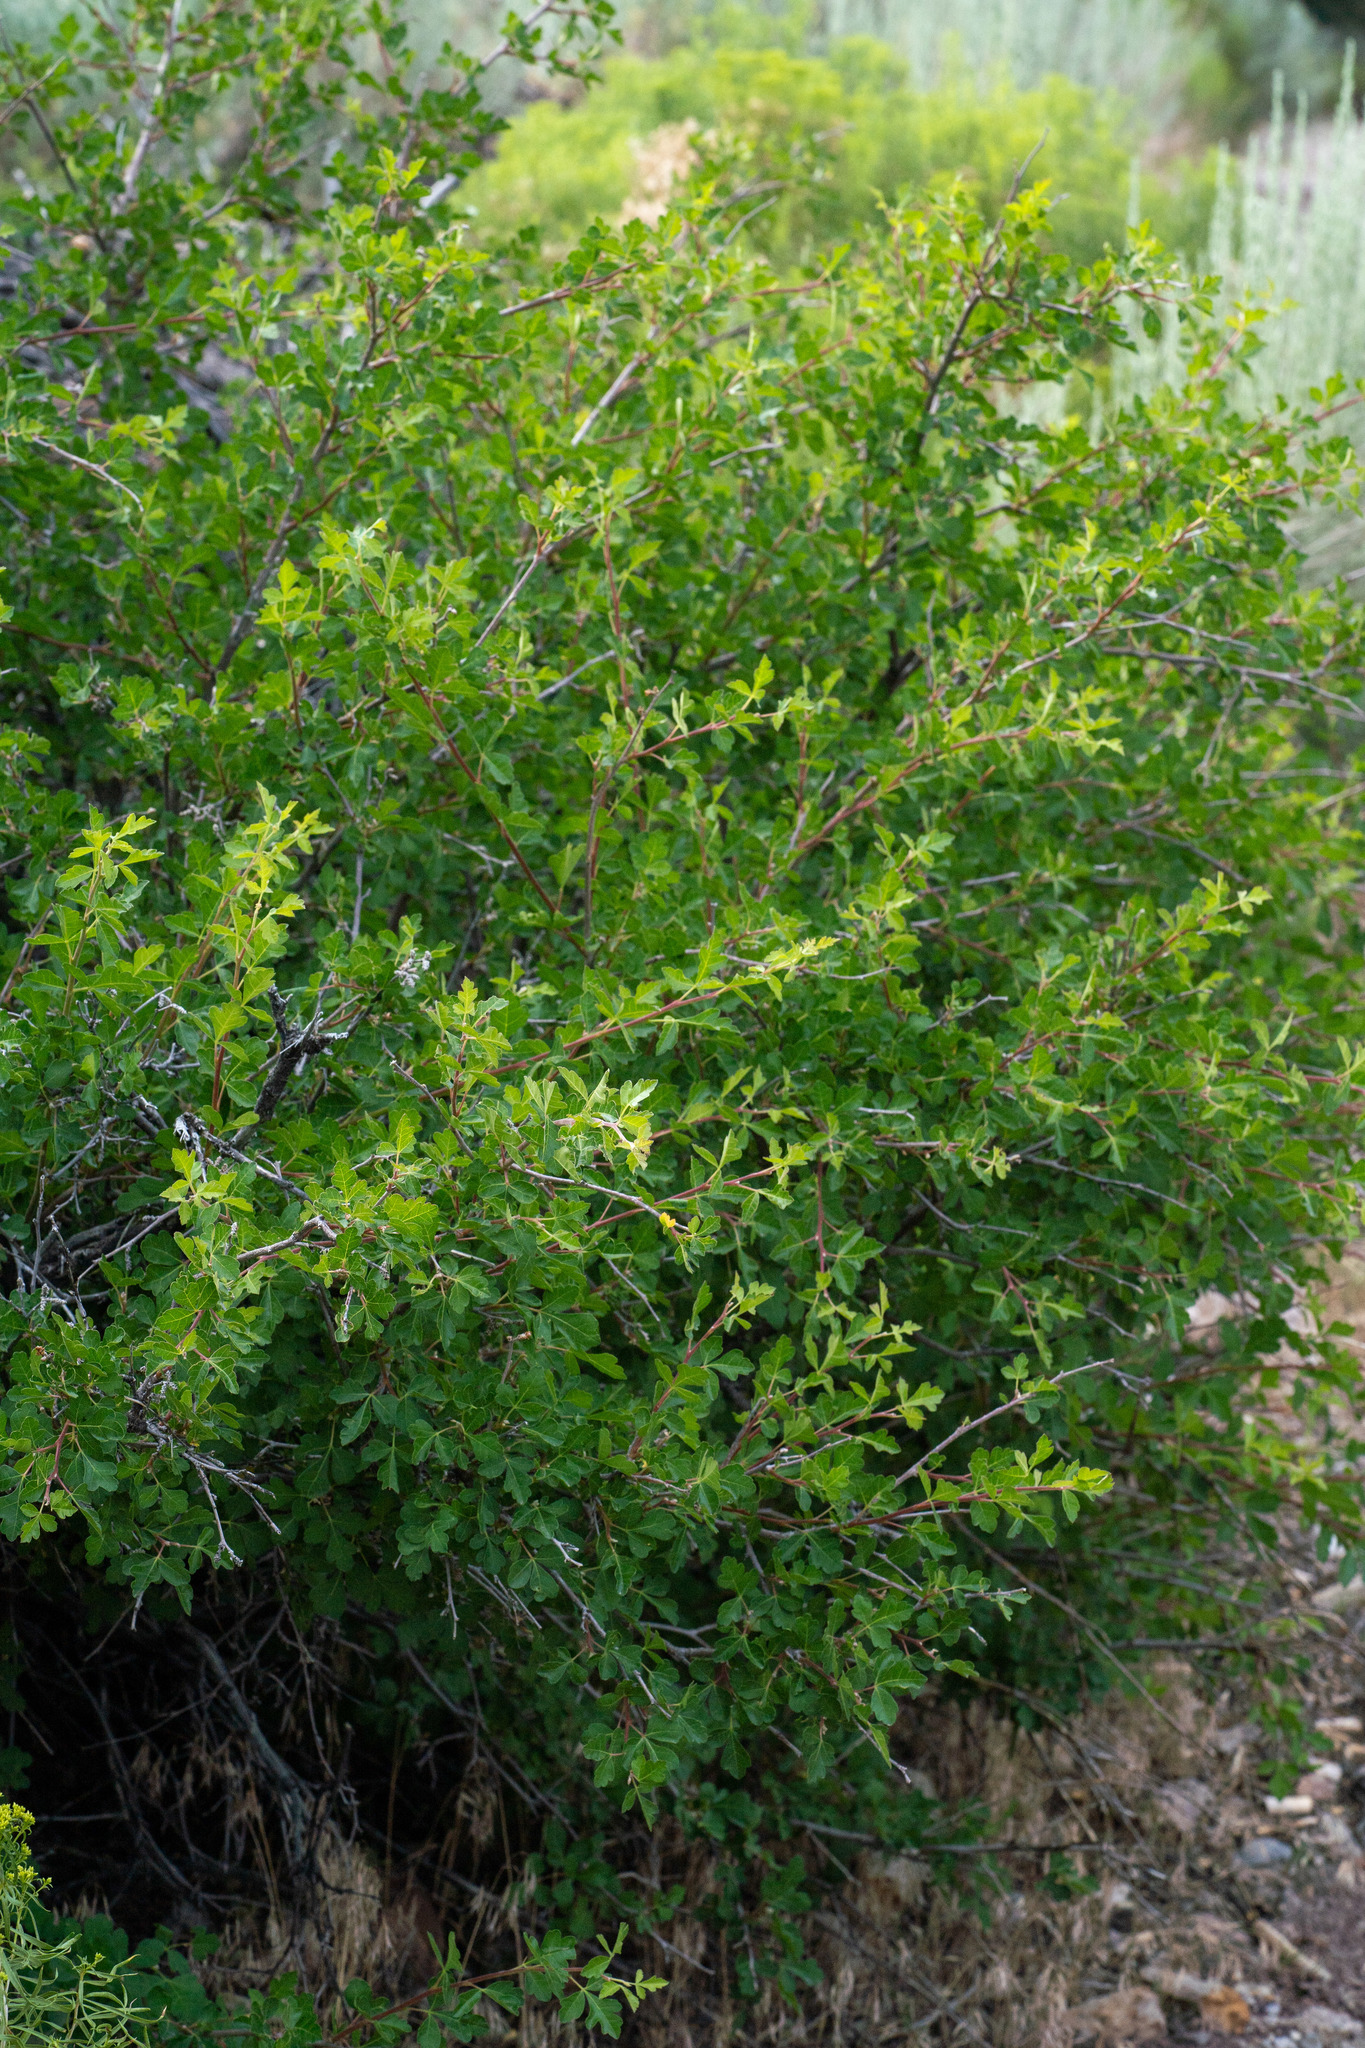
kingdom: Plantae
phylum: Tracheophyta
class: Magnoliopsida
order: Sapindales
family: Anacardiaceae
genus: Rhus
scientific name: Rhus trilobata
